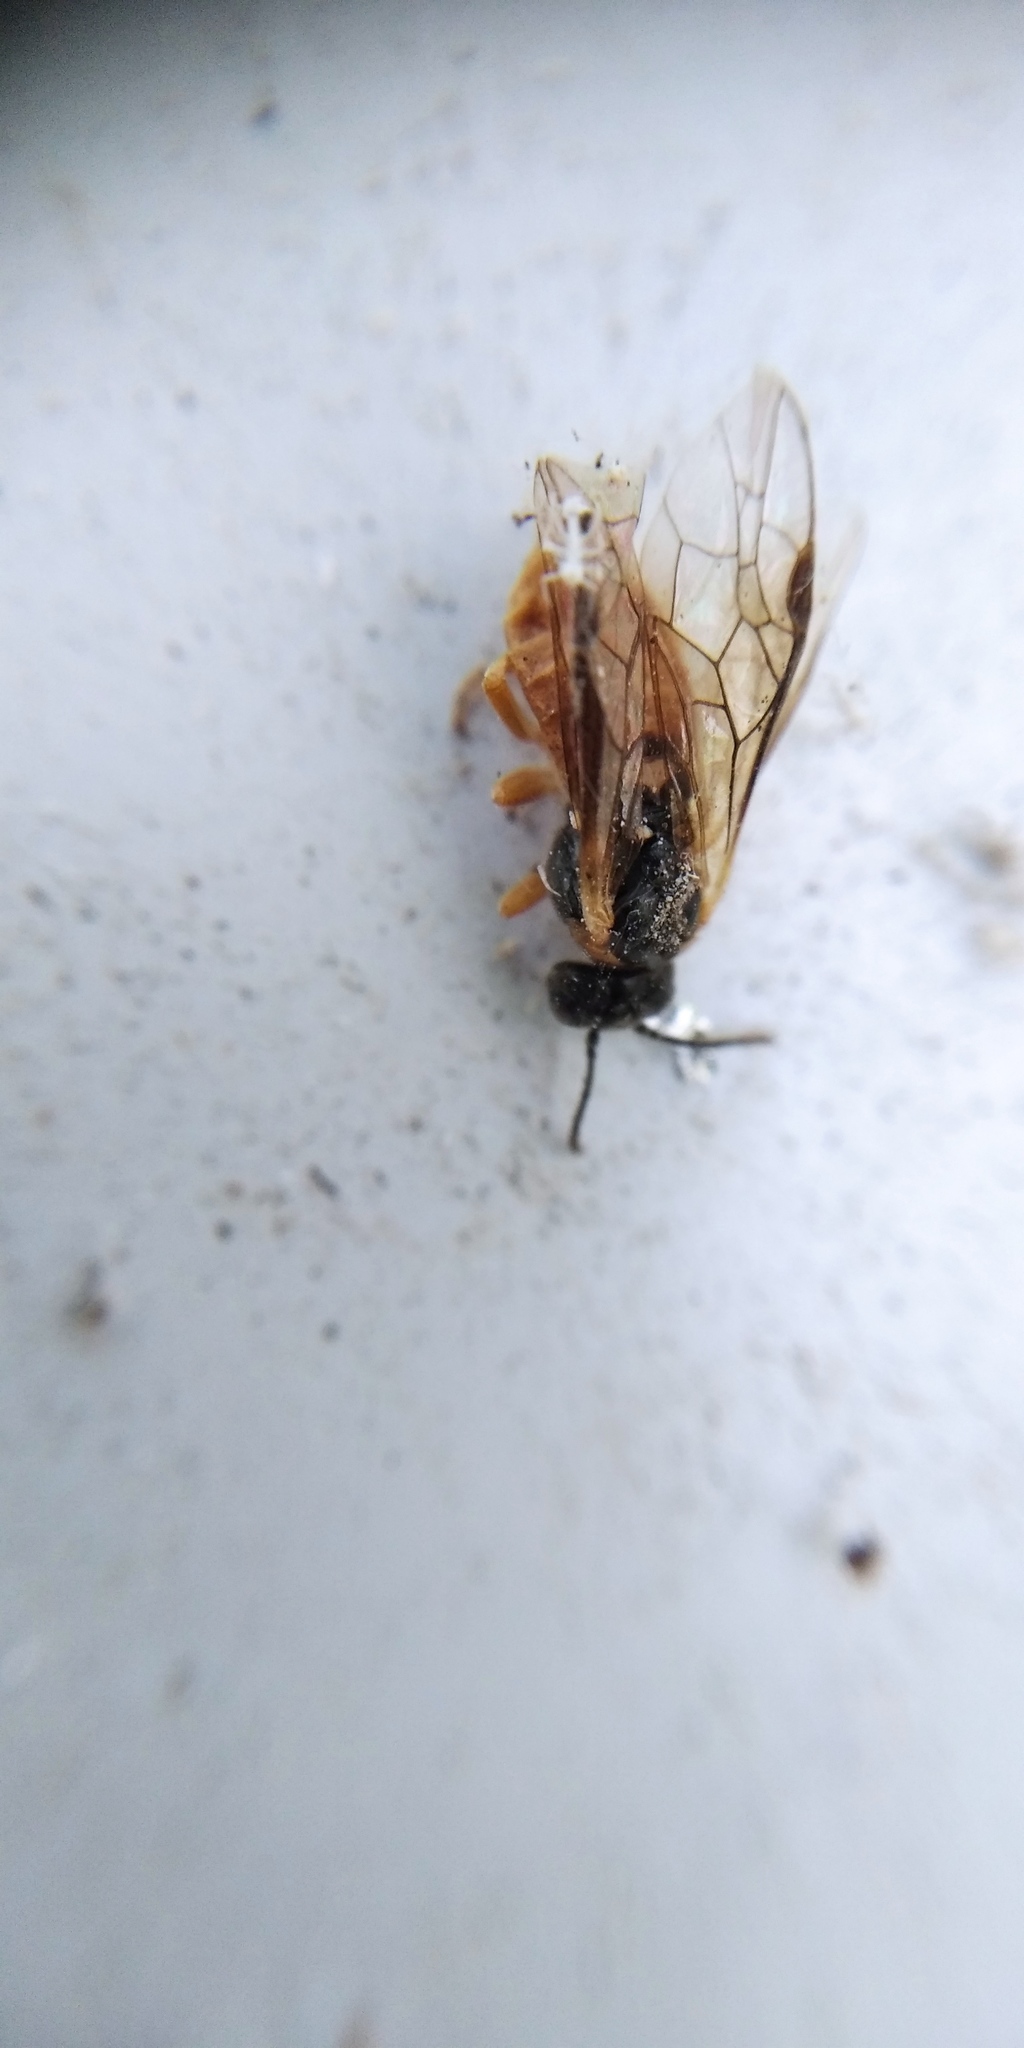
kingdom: Animalia
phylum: Arthropoda
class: Insecta
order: Hymenoptera
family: Tenthredinidae
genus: Monostegia
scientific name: Monostegia abdominalis
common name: Tenthredid wasp
